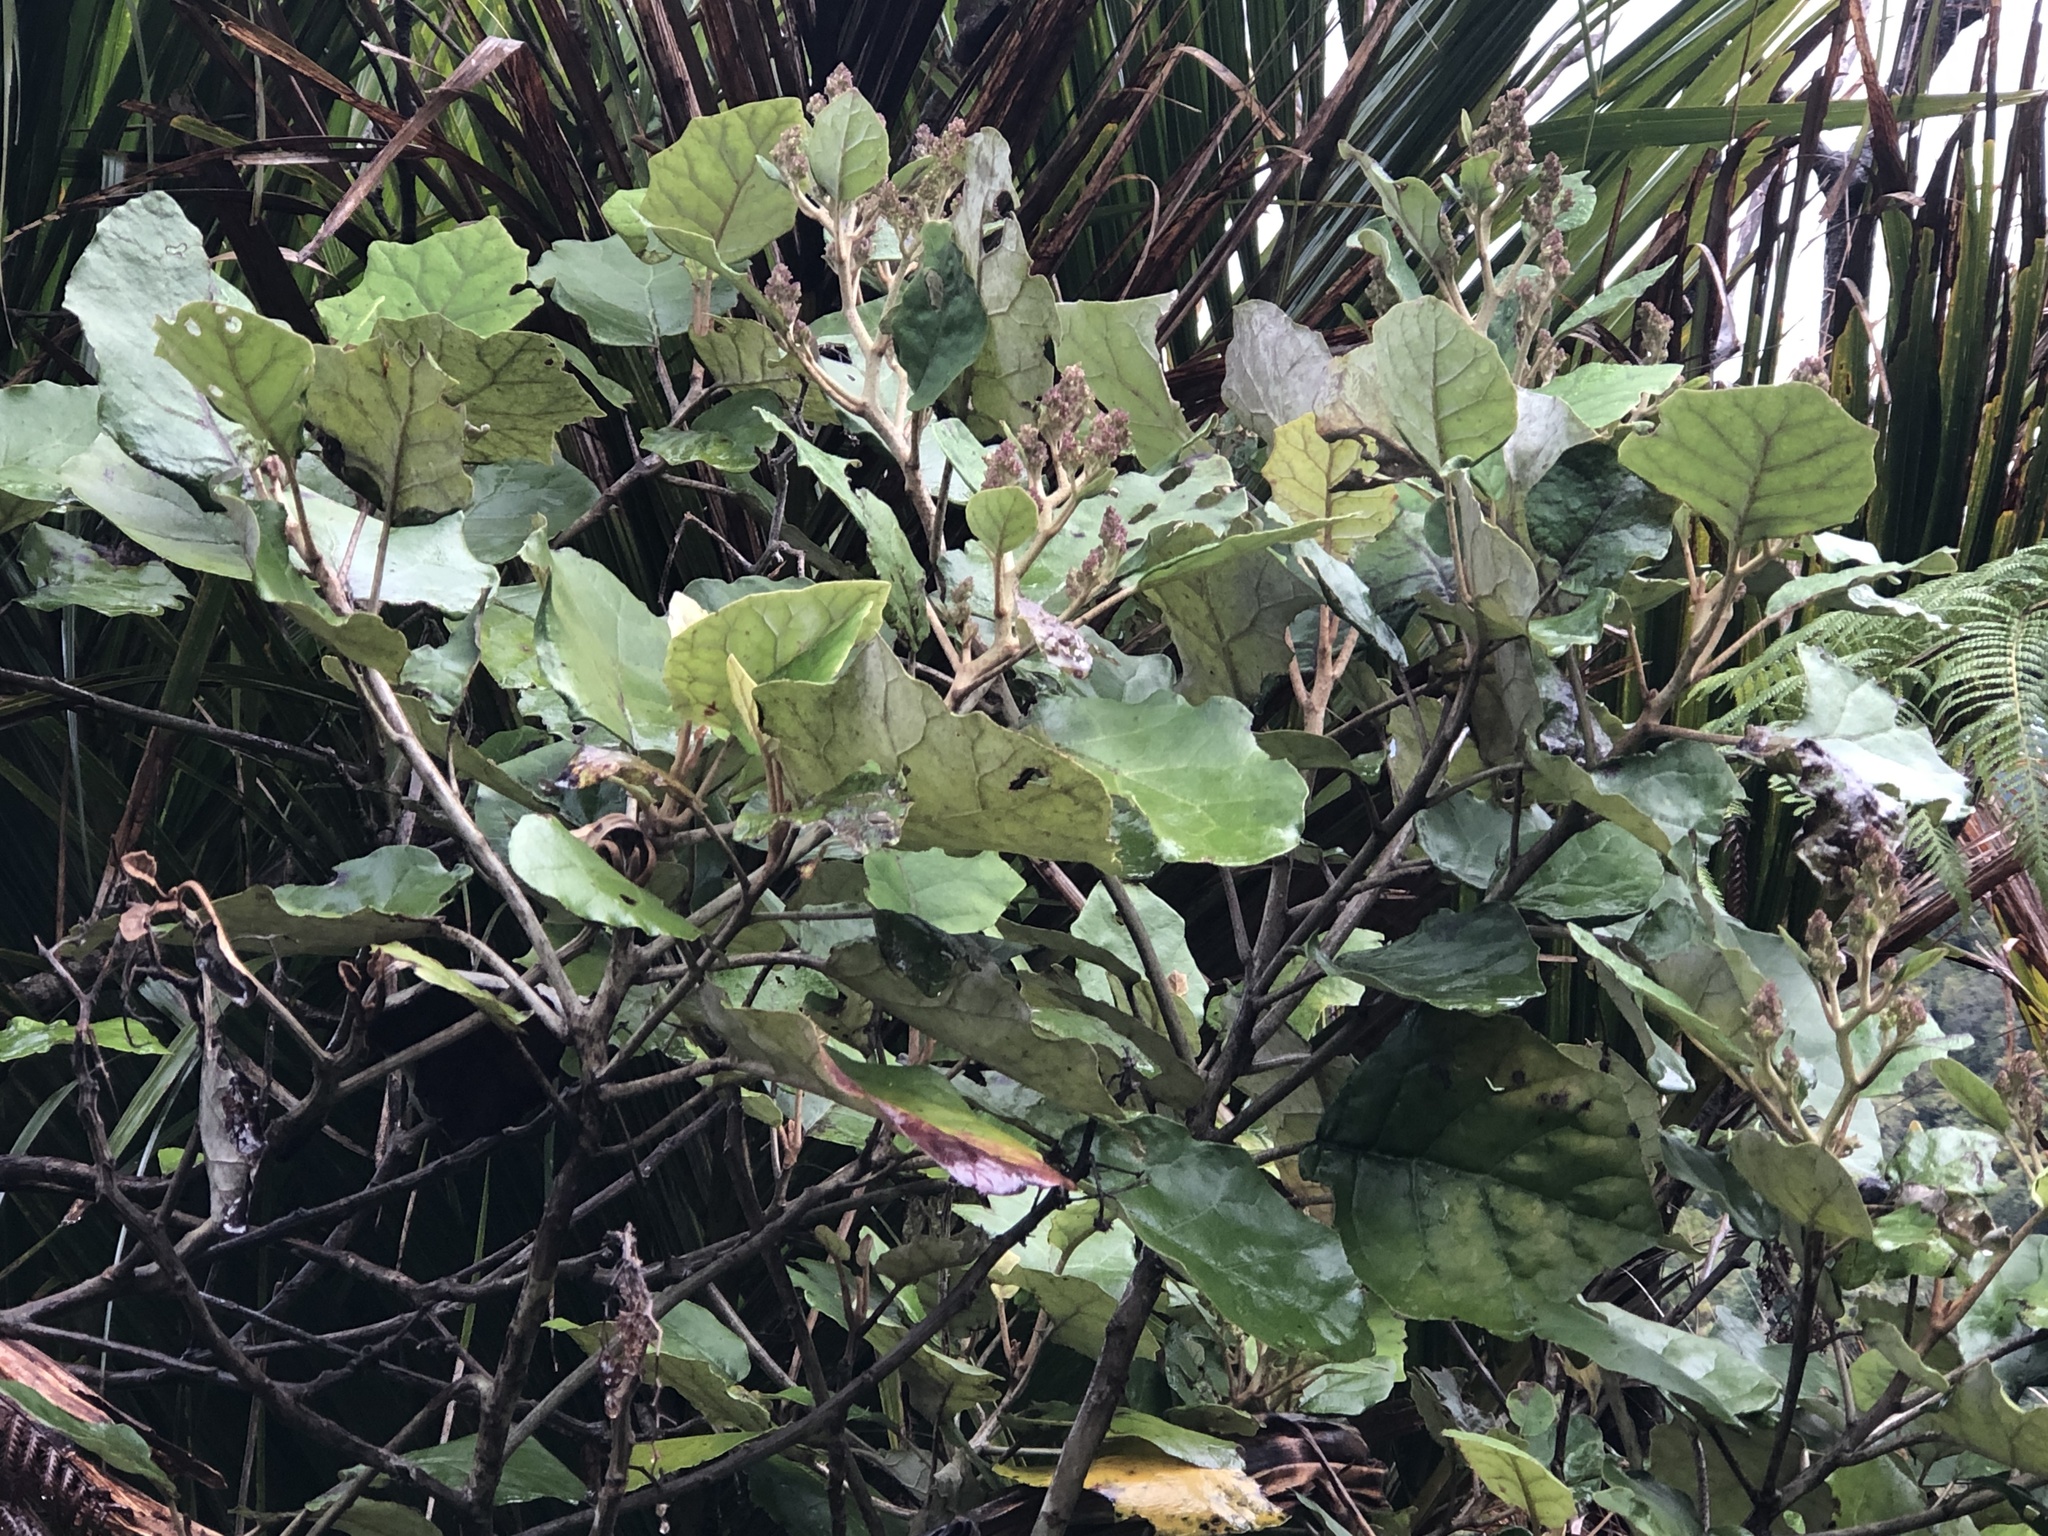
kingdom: Plantae
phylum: Tracheophyta
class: Magnoliopsida
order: Asterales
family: Asteraceae
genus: Brachyglottis
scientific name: Brachyglottis repanda
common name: Hedge ragwort
